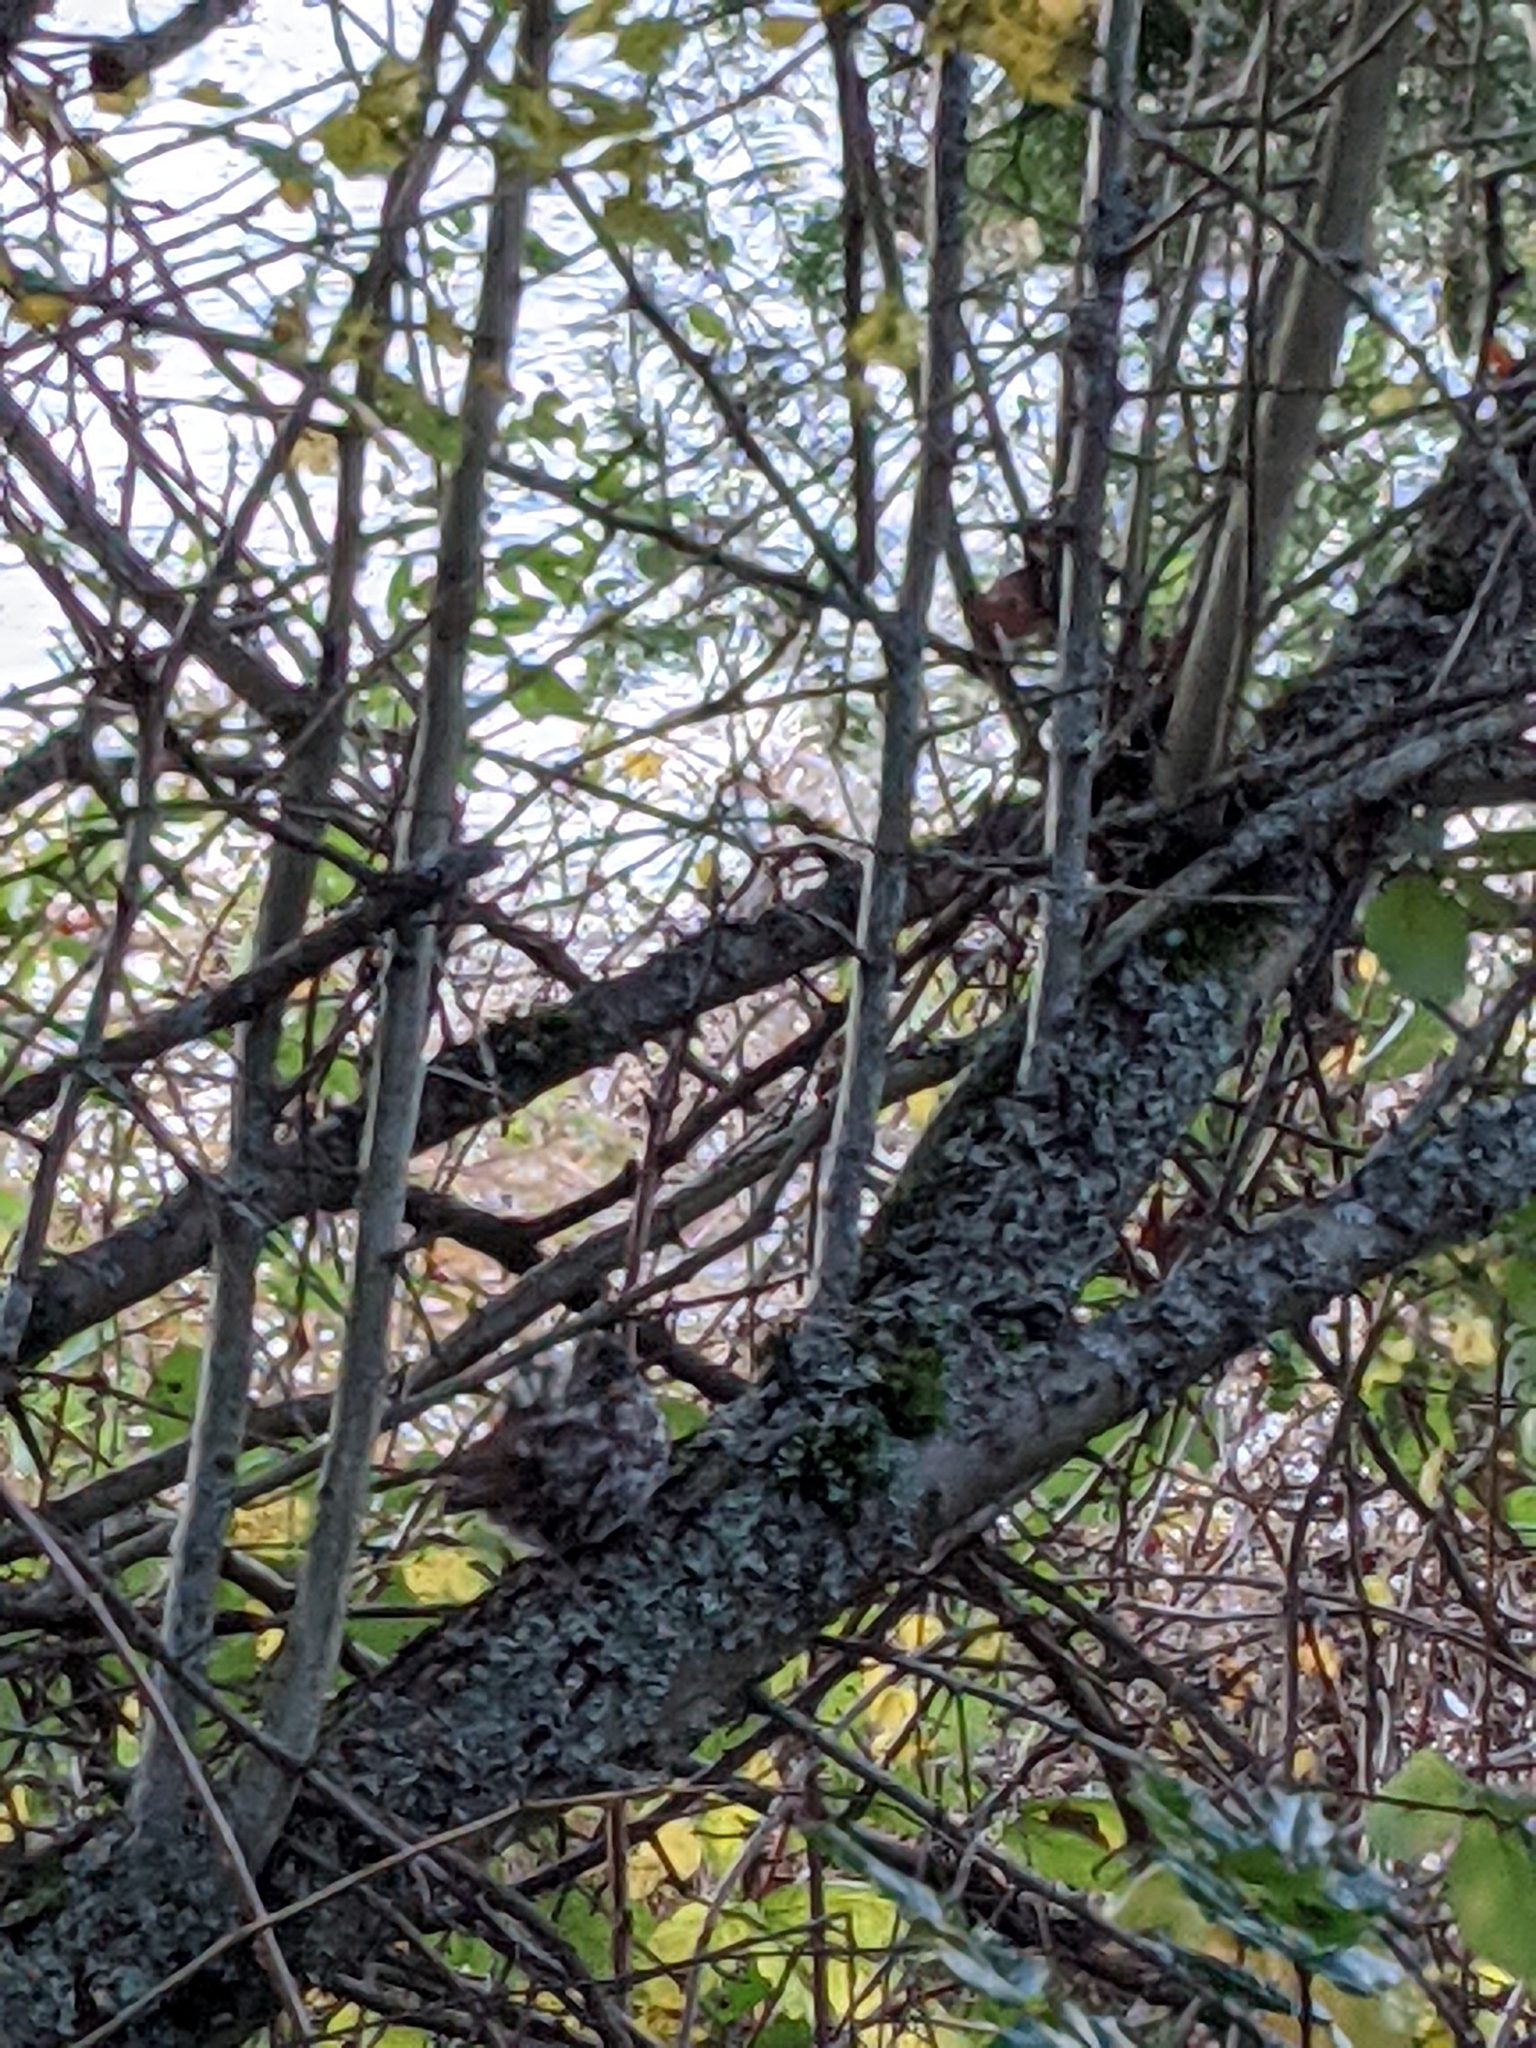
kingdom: Animalia
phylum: Chordata
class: Aves
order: Passeriformes
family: Passerellidae
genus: Passerella
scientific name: Passerella iliaca
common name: Fox sparrow
